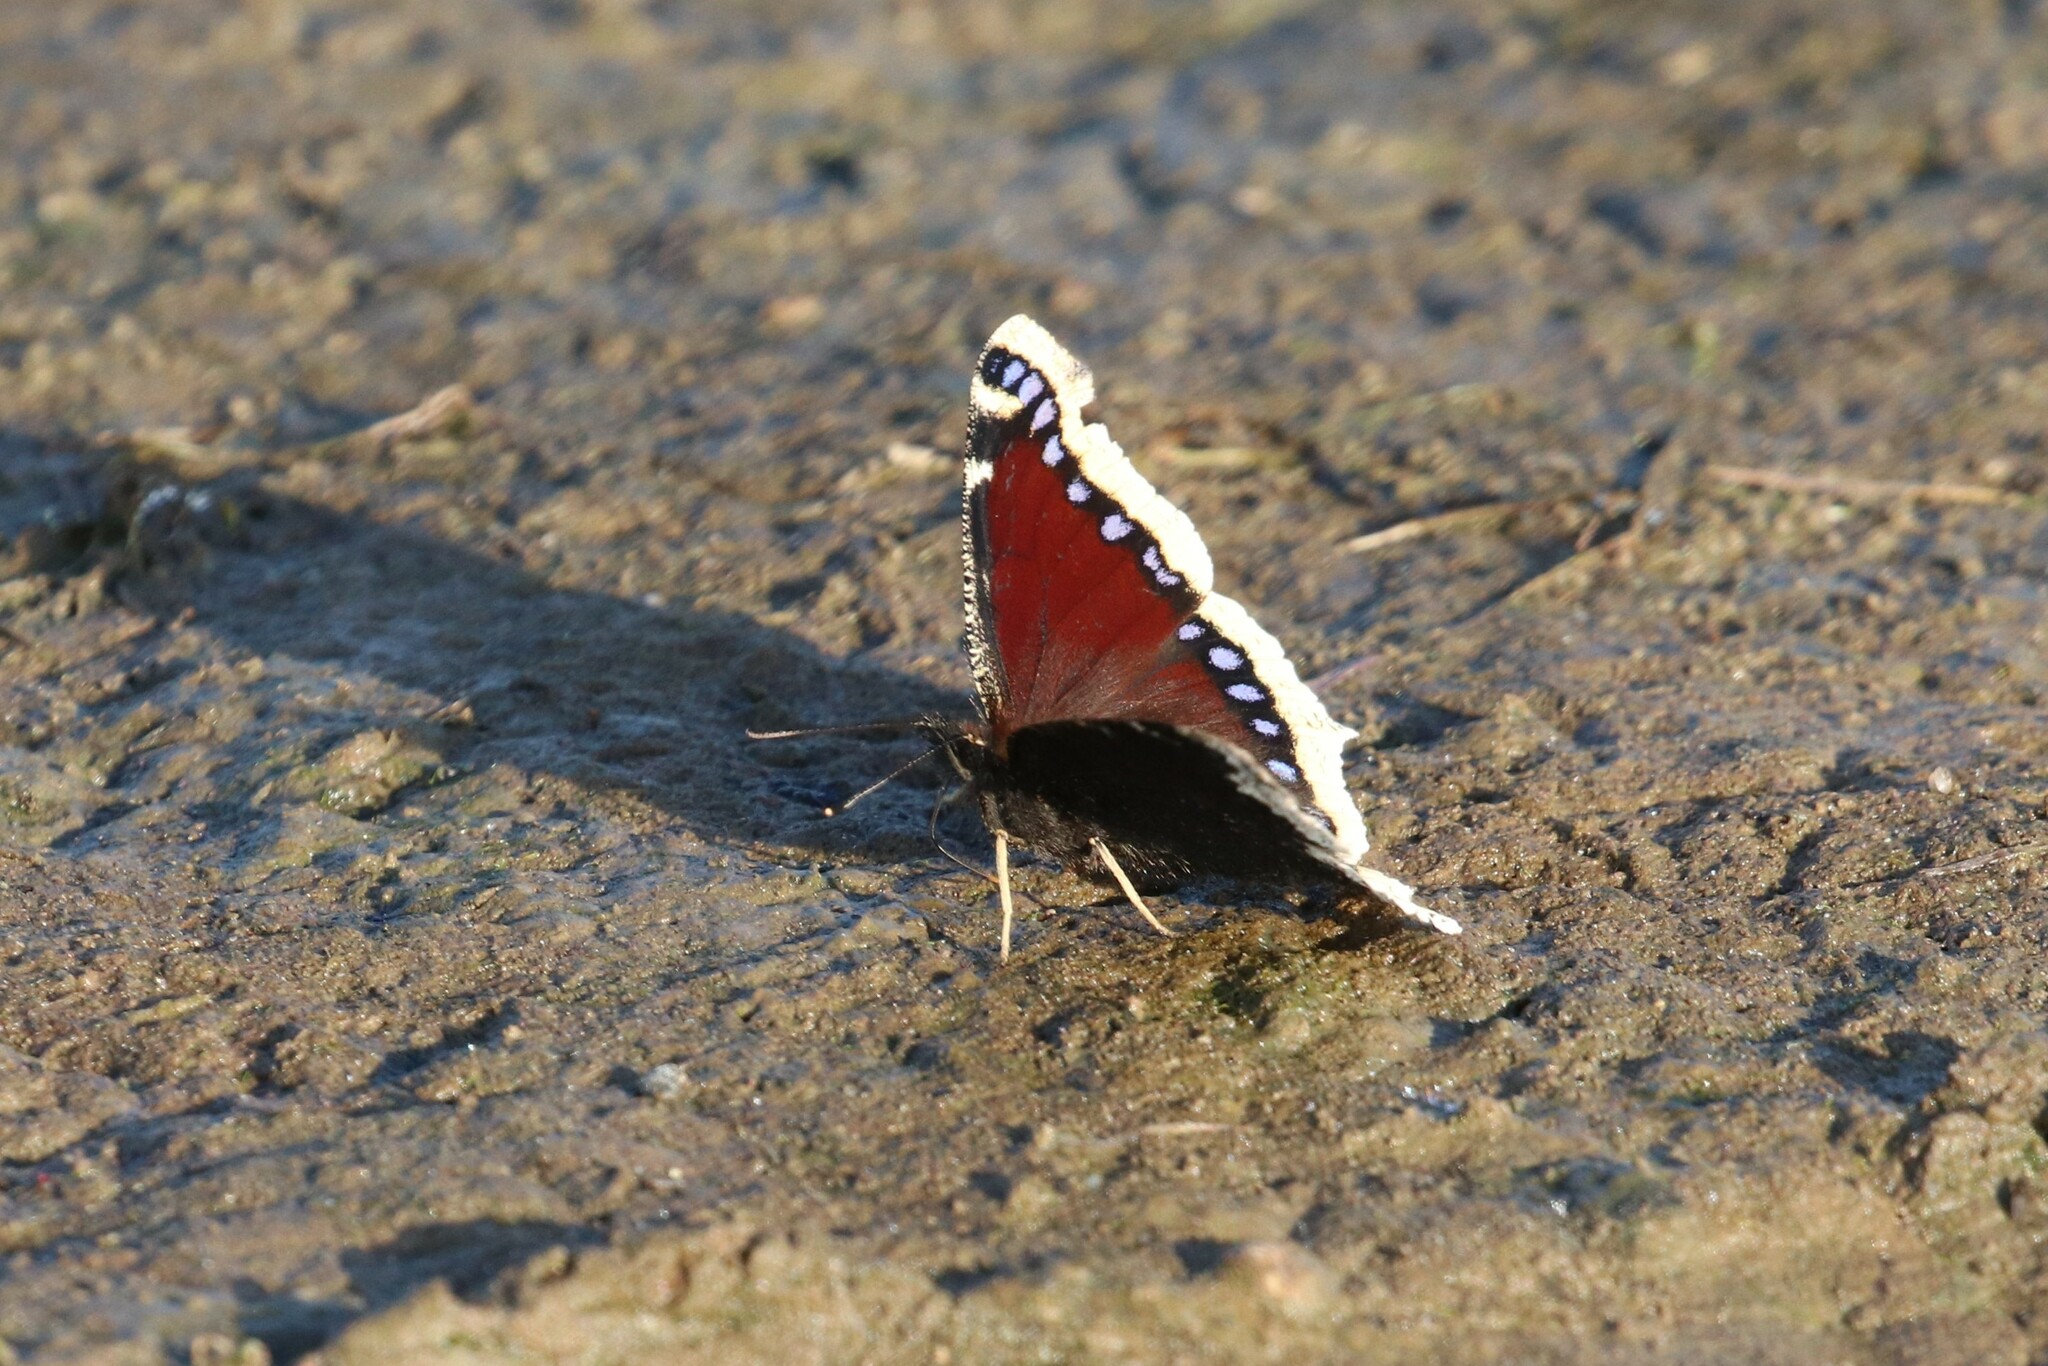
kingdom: Animalia
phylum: Arthropoda
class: Insecta
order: Lepidoptera
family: Nymphalidae
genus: Nymphalis
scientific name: Nymphalis antiopa
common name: Camberwell beauty
